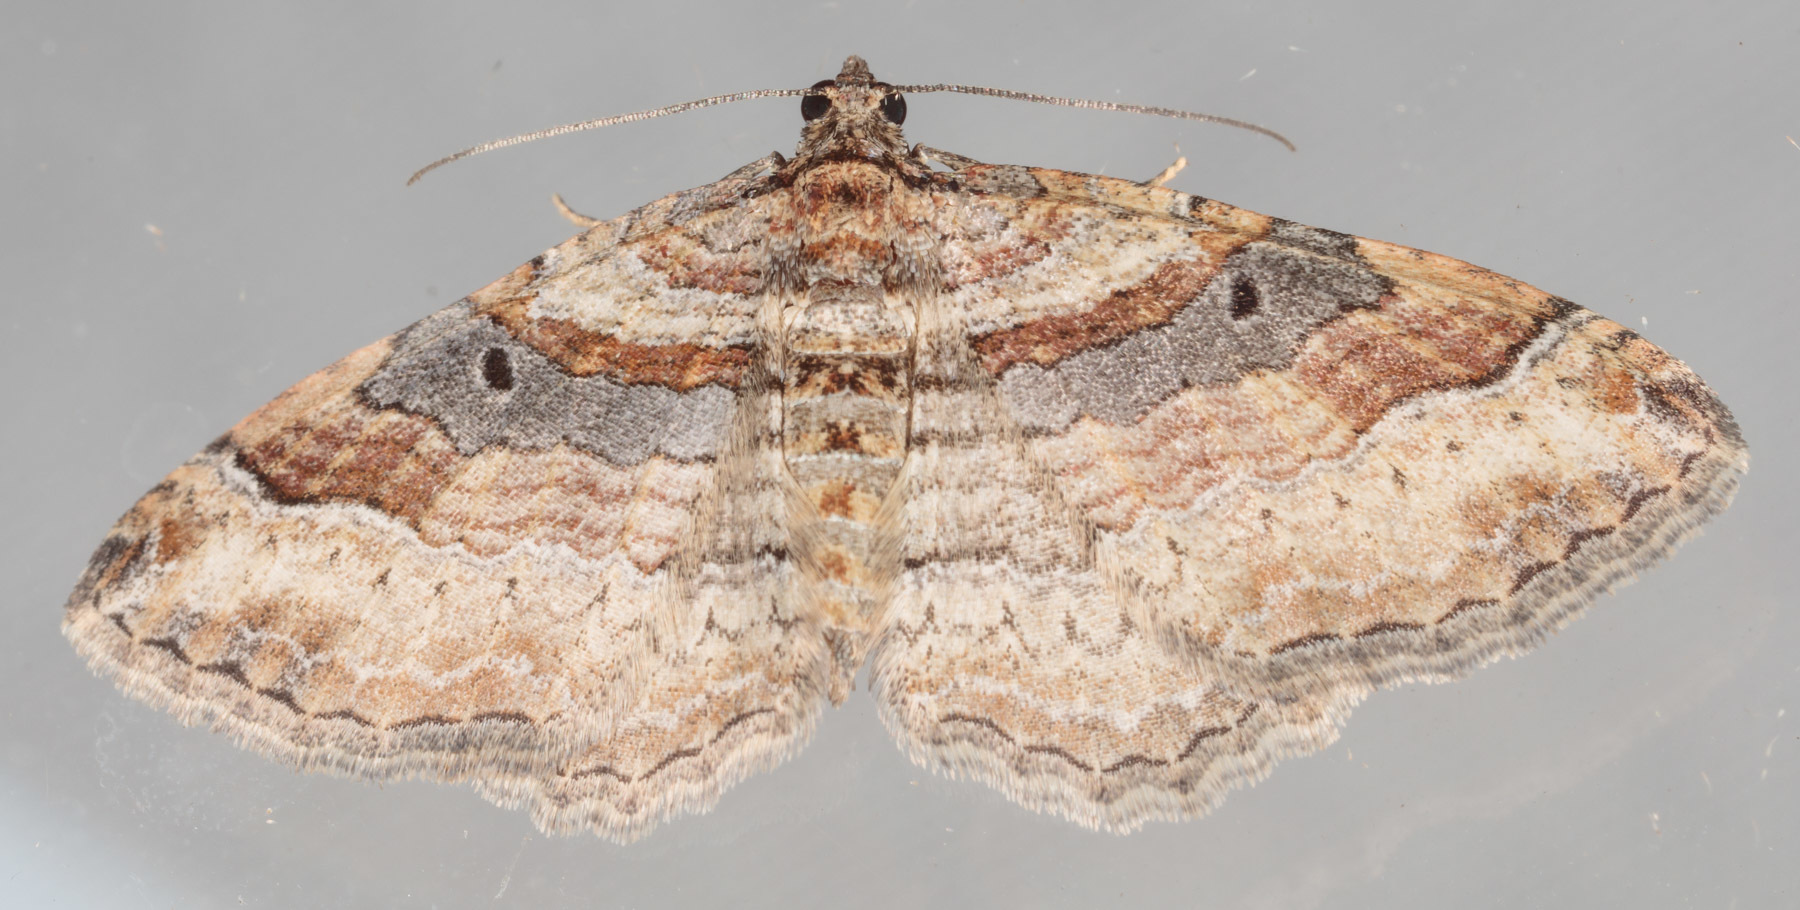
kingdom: Animalia
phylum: Arthropoda
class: Insecta
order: Lepidoptera
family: Geometridae
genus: Costaconvexa
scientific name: Costaconvexa centrostrigaria
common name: Bent-line carpet
